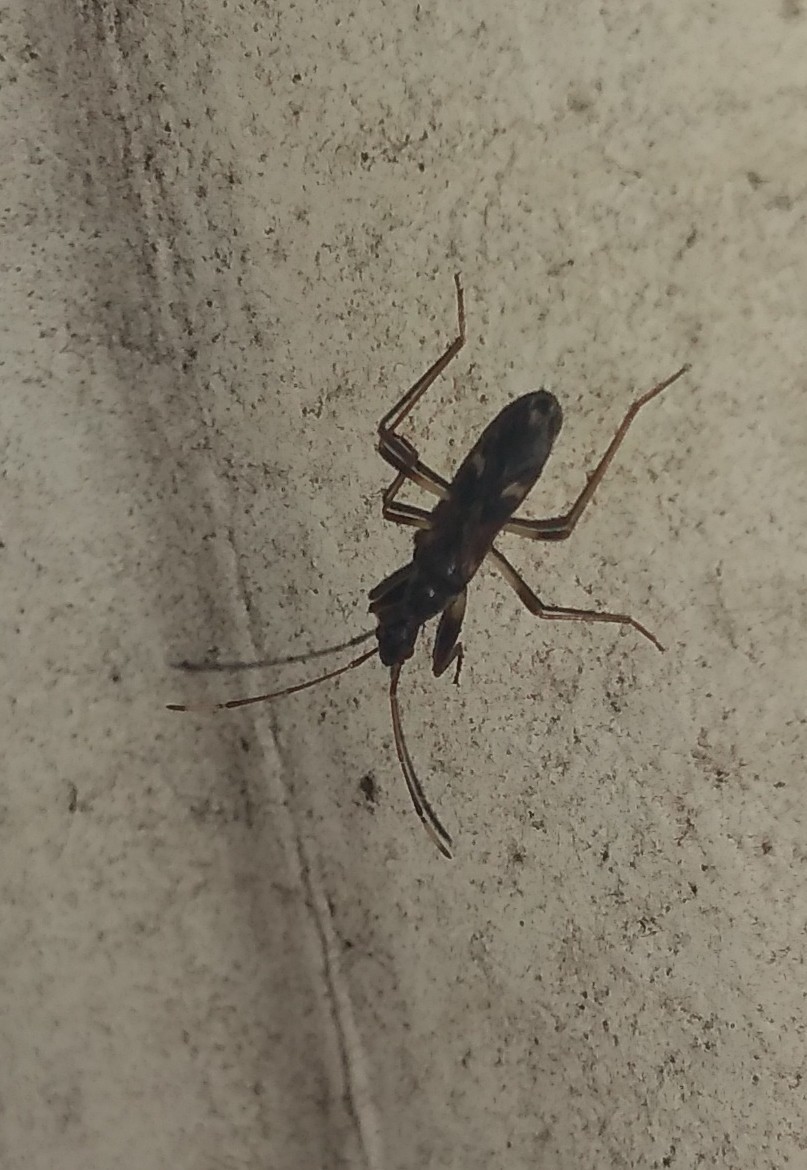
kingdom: Animalia
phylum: Arthropoda
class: Insecta
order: Hemiptera
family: Rhyparochromidae
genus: Baranowskiobius
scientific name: Baranowskiobius bimaculatus
